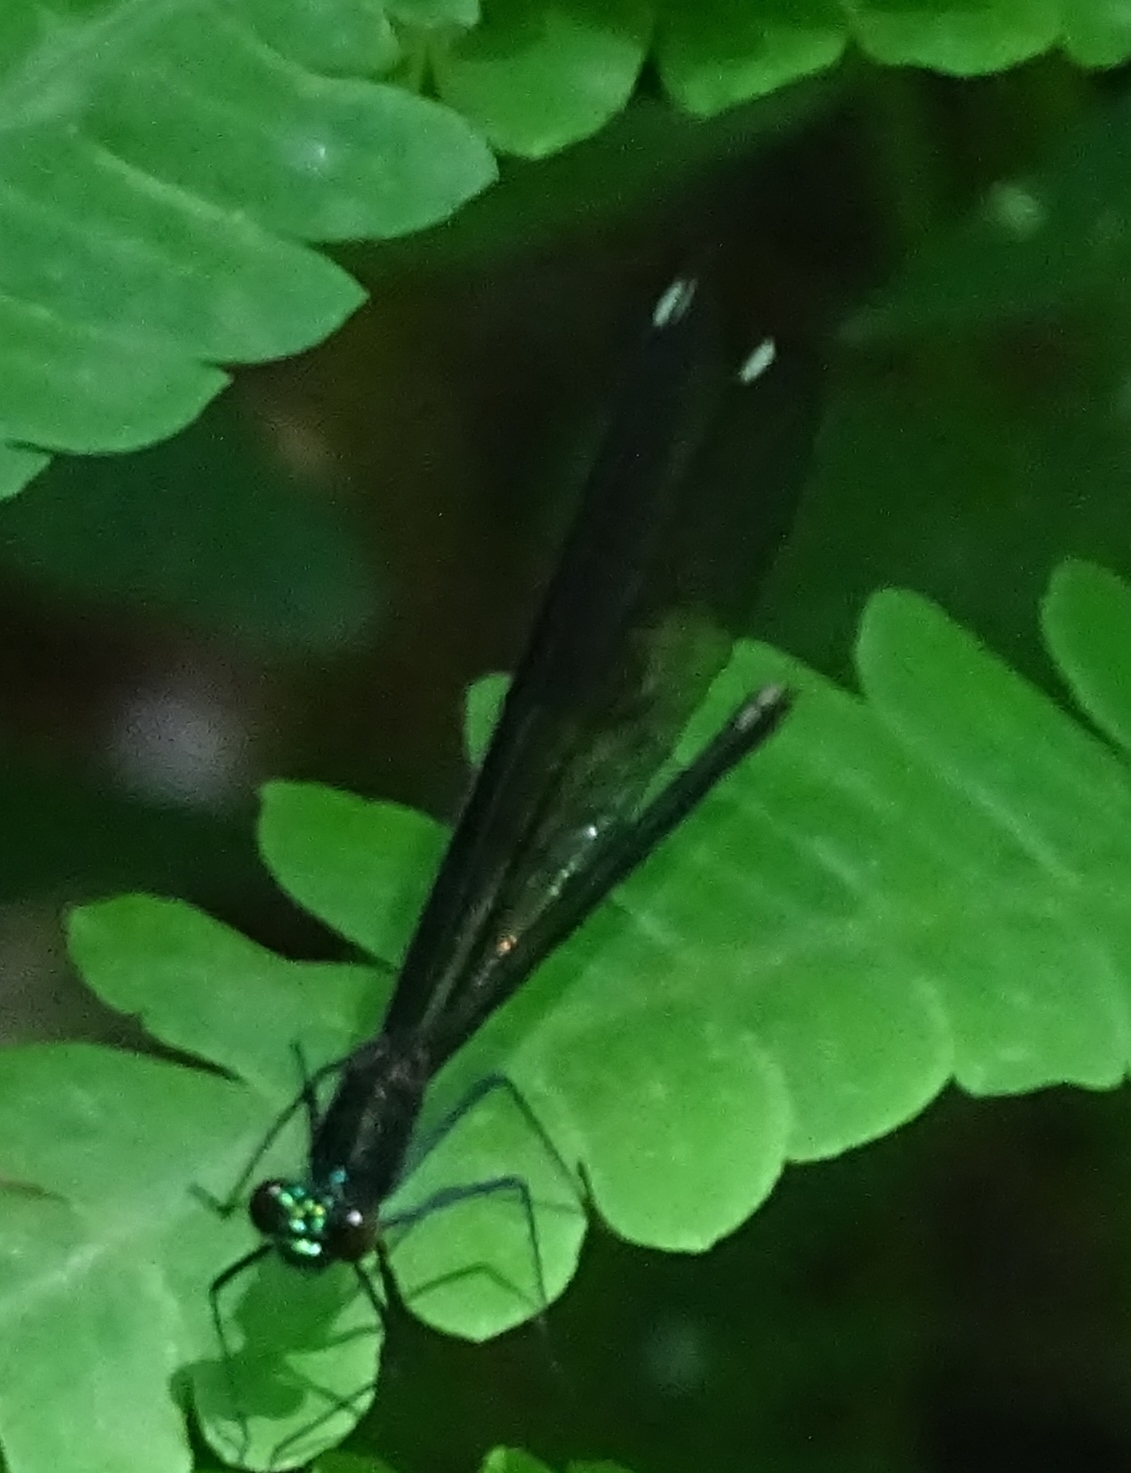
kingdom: Animalia
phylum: Arthropoda
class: Insecta
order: Odonata
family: Calopterygidae
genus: Calopteryx
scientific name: Calopteryx maculata
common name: Ebony jewelwing
